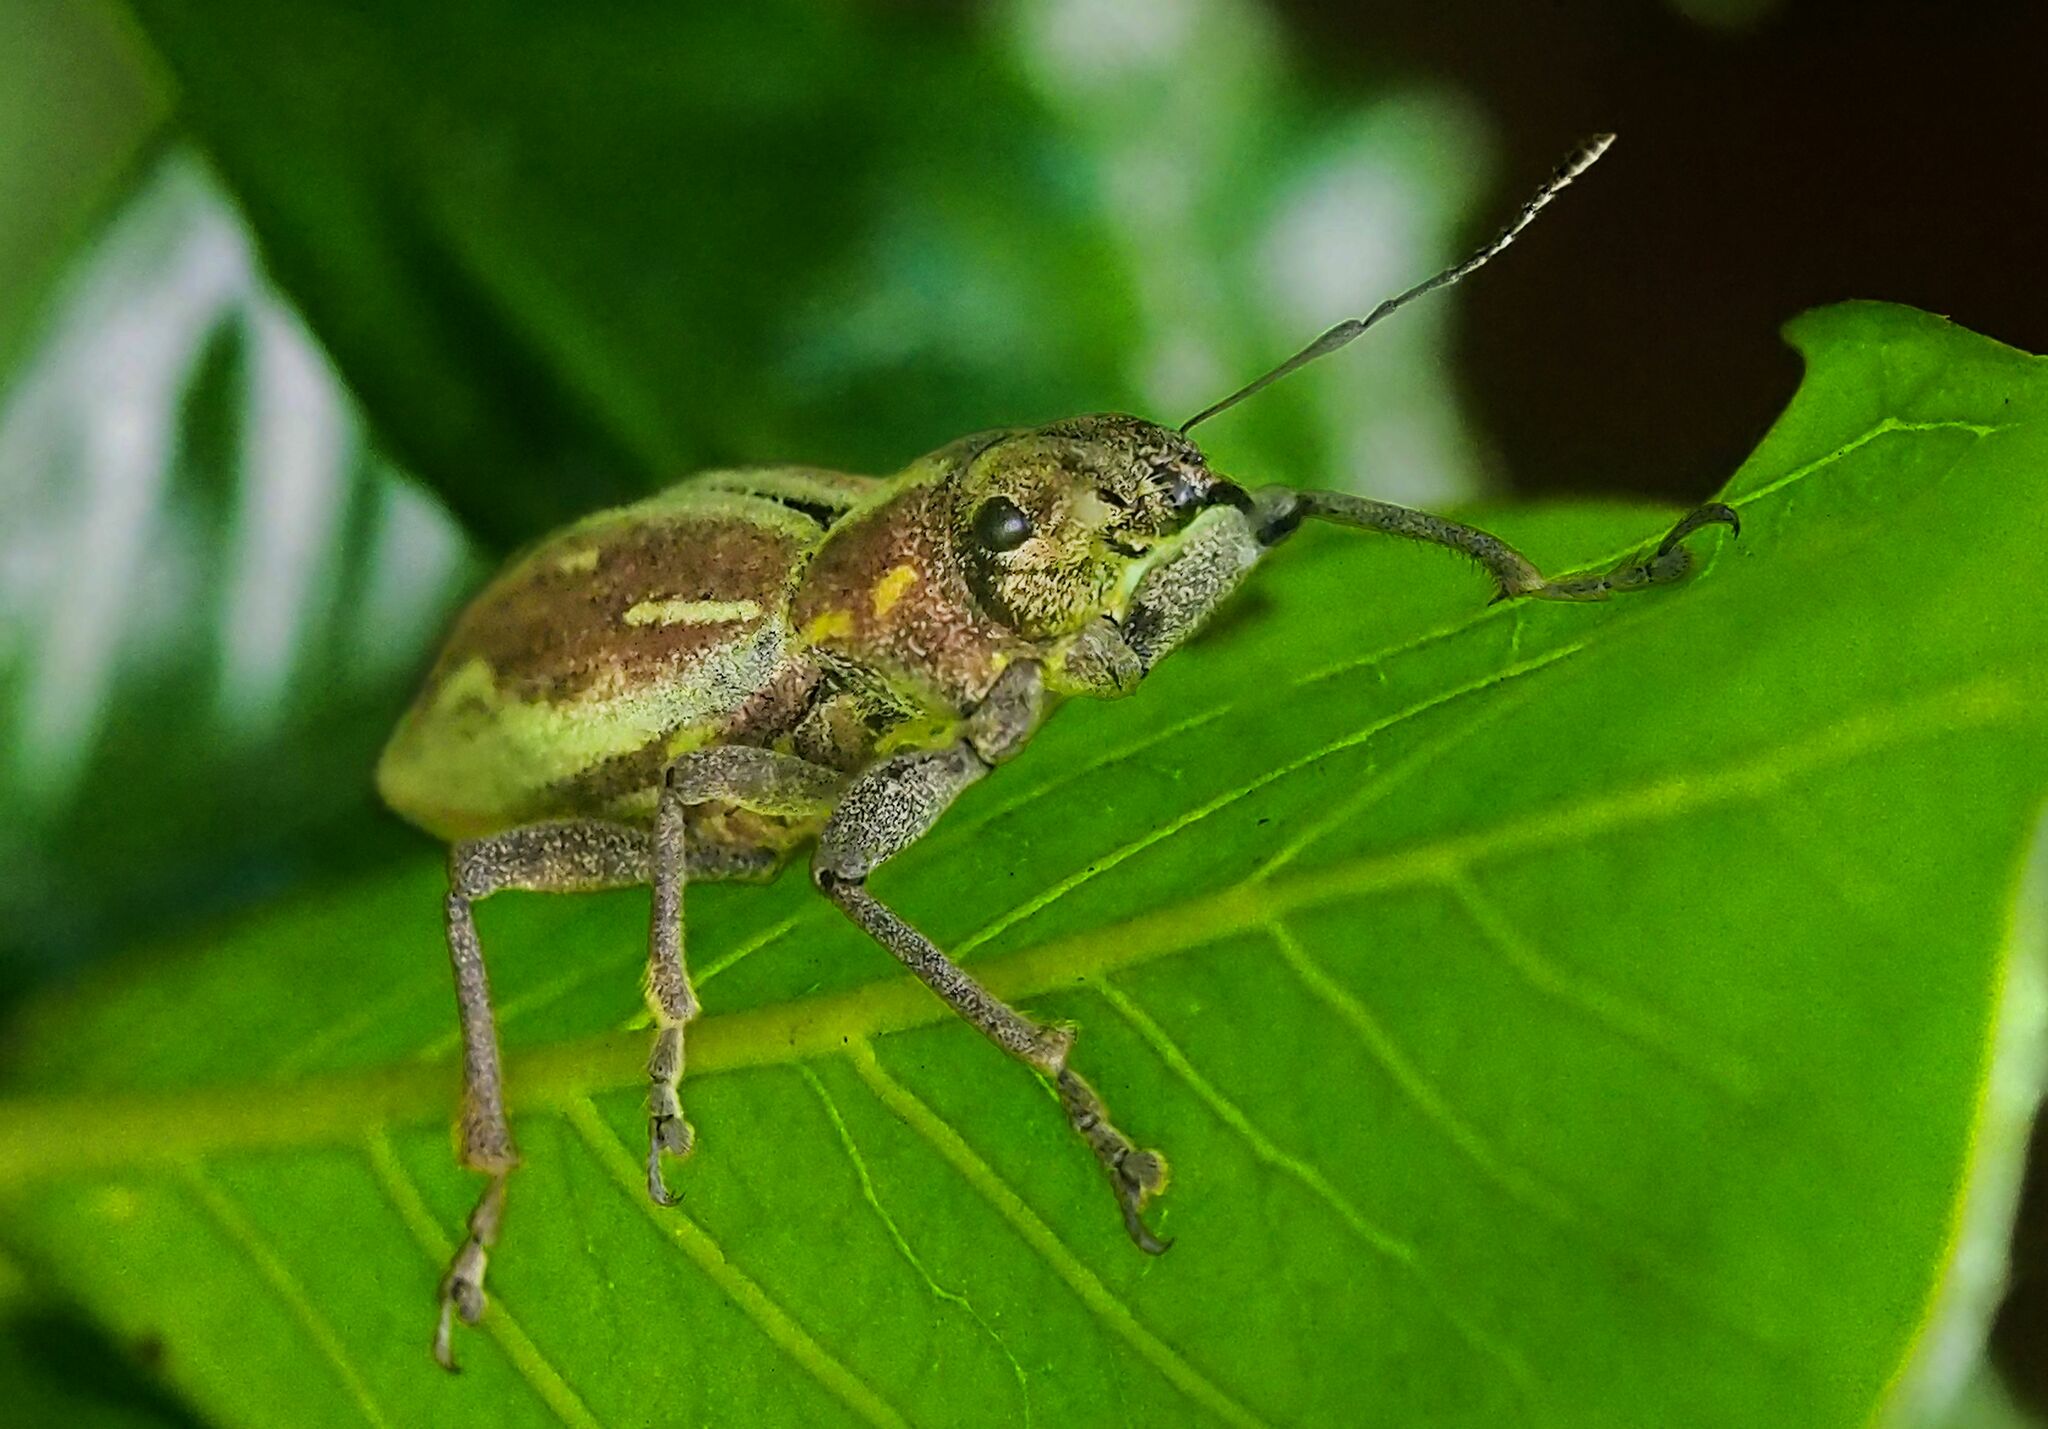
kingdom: Animalia
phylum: Arthropoda
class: Insecta
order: Coleoptera
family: Curculionidae
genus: Naupactus
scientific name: Naupactus xanthographus
